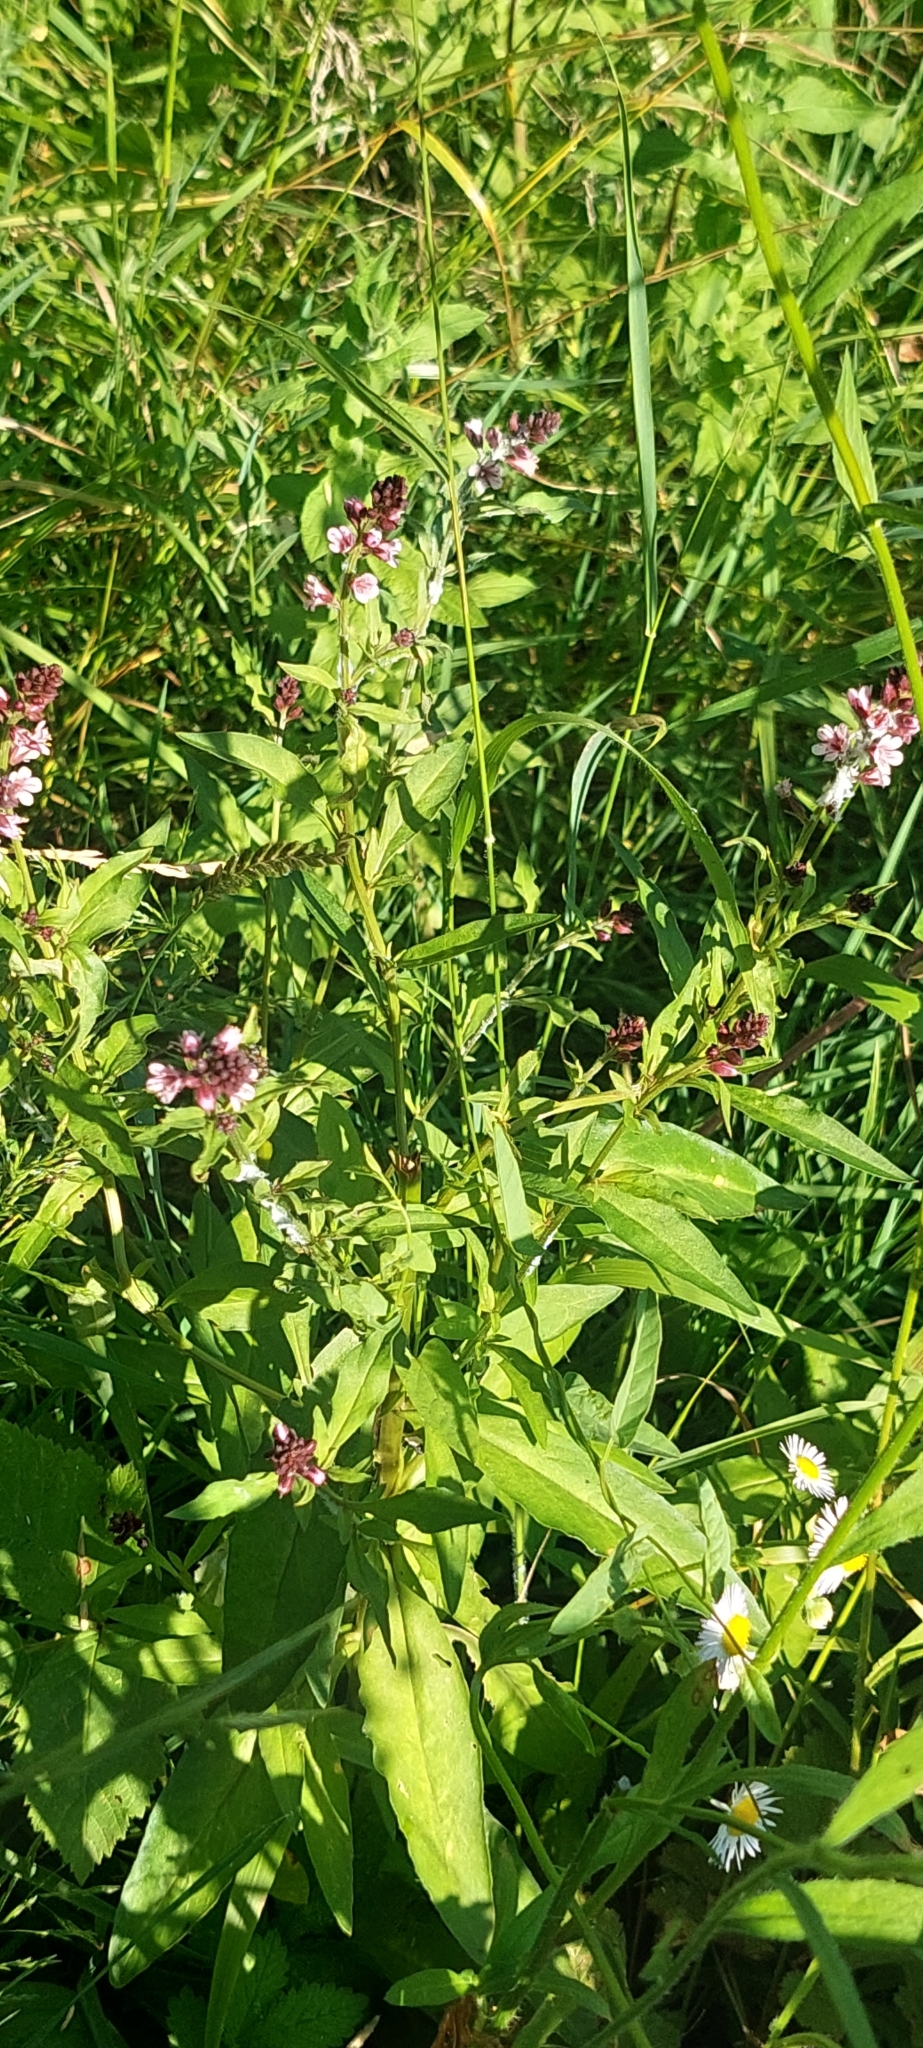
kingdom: Plantae
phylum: Tracheophyta
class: Magnoliopsida
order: Ericales
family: Primulaceae
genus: Lysimachia
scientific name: Lysimachia dubia
